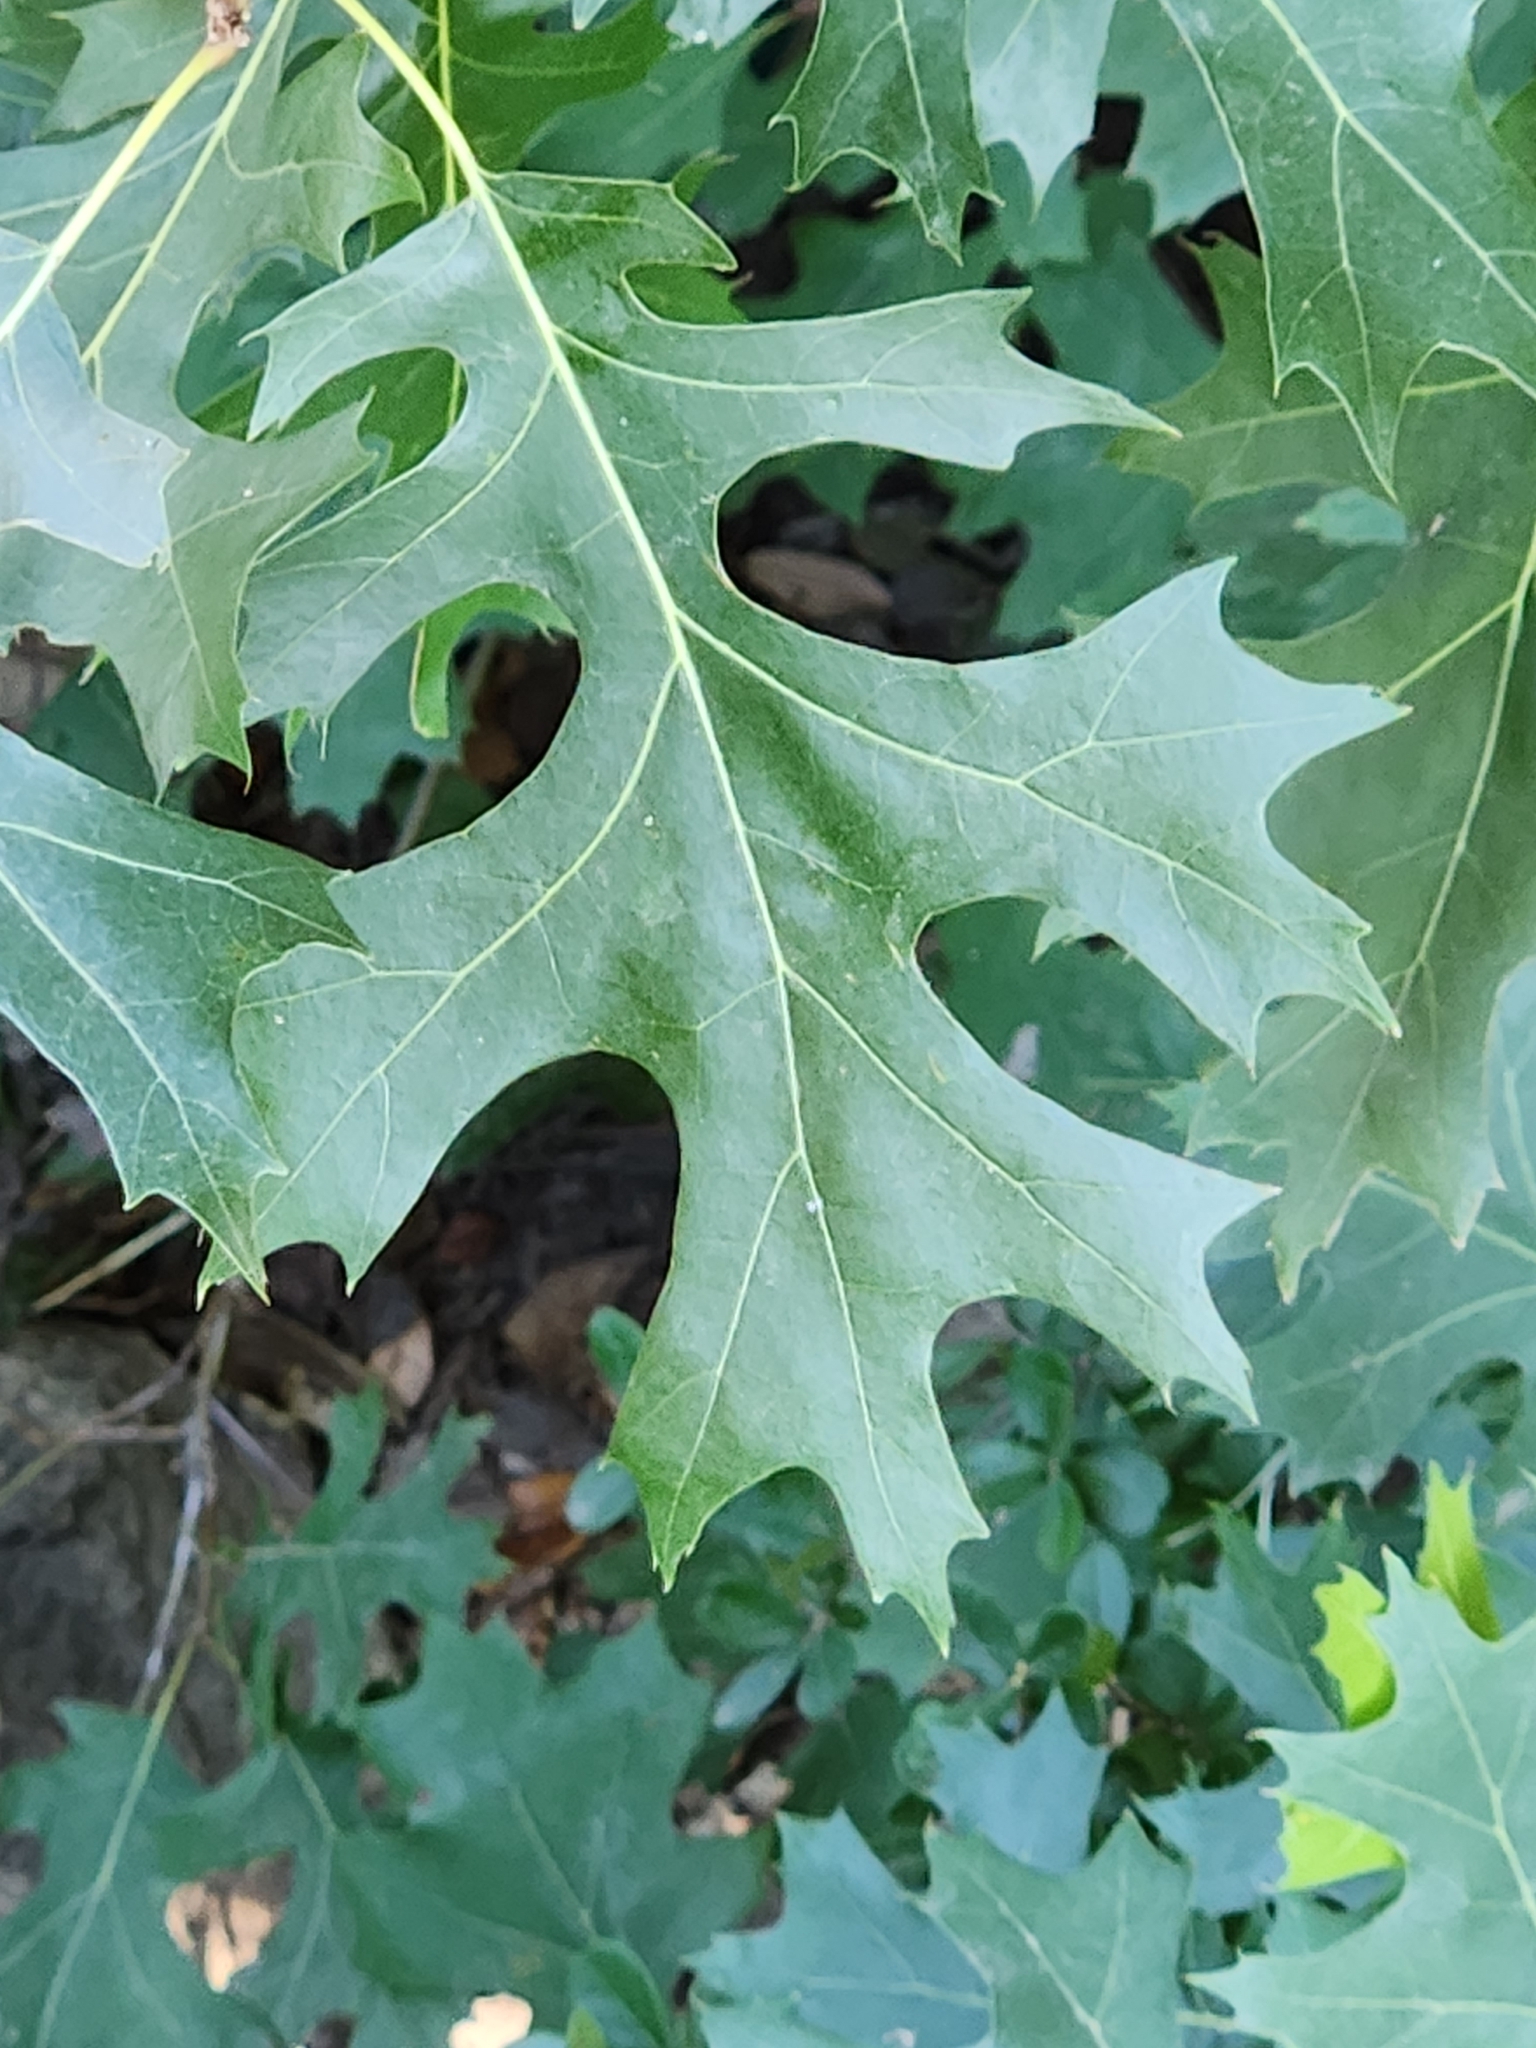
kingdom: Plantae
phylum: Tracheophyta
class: Magnoliopsida
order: Fagales
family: Fagaceae
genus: Quercus
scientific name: Quercus shumardii
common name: Shumard oak
